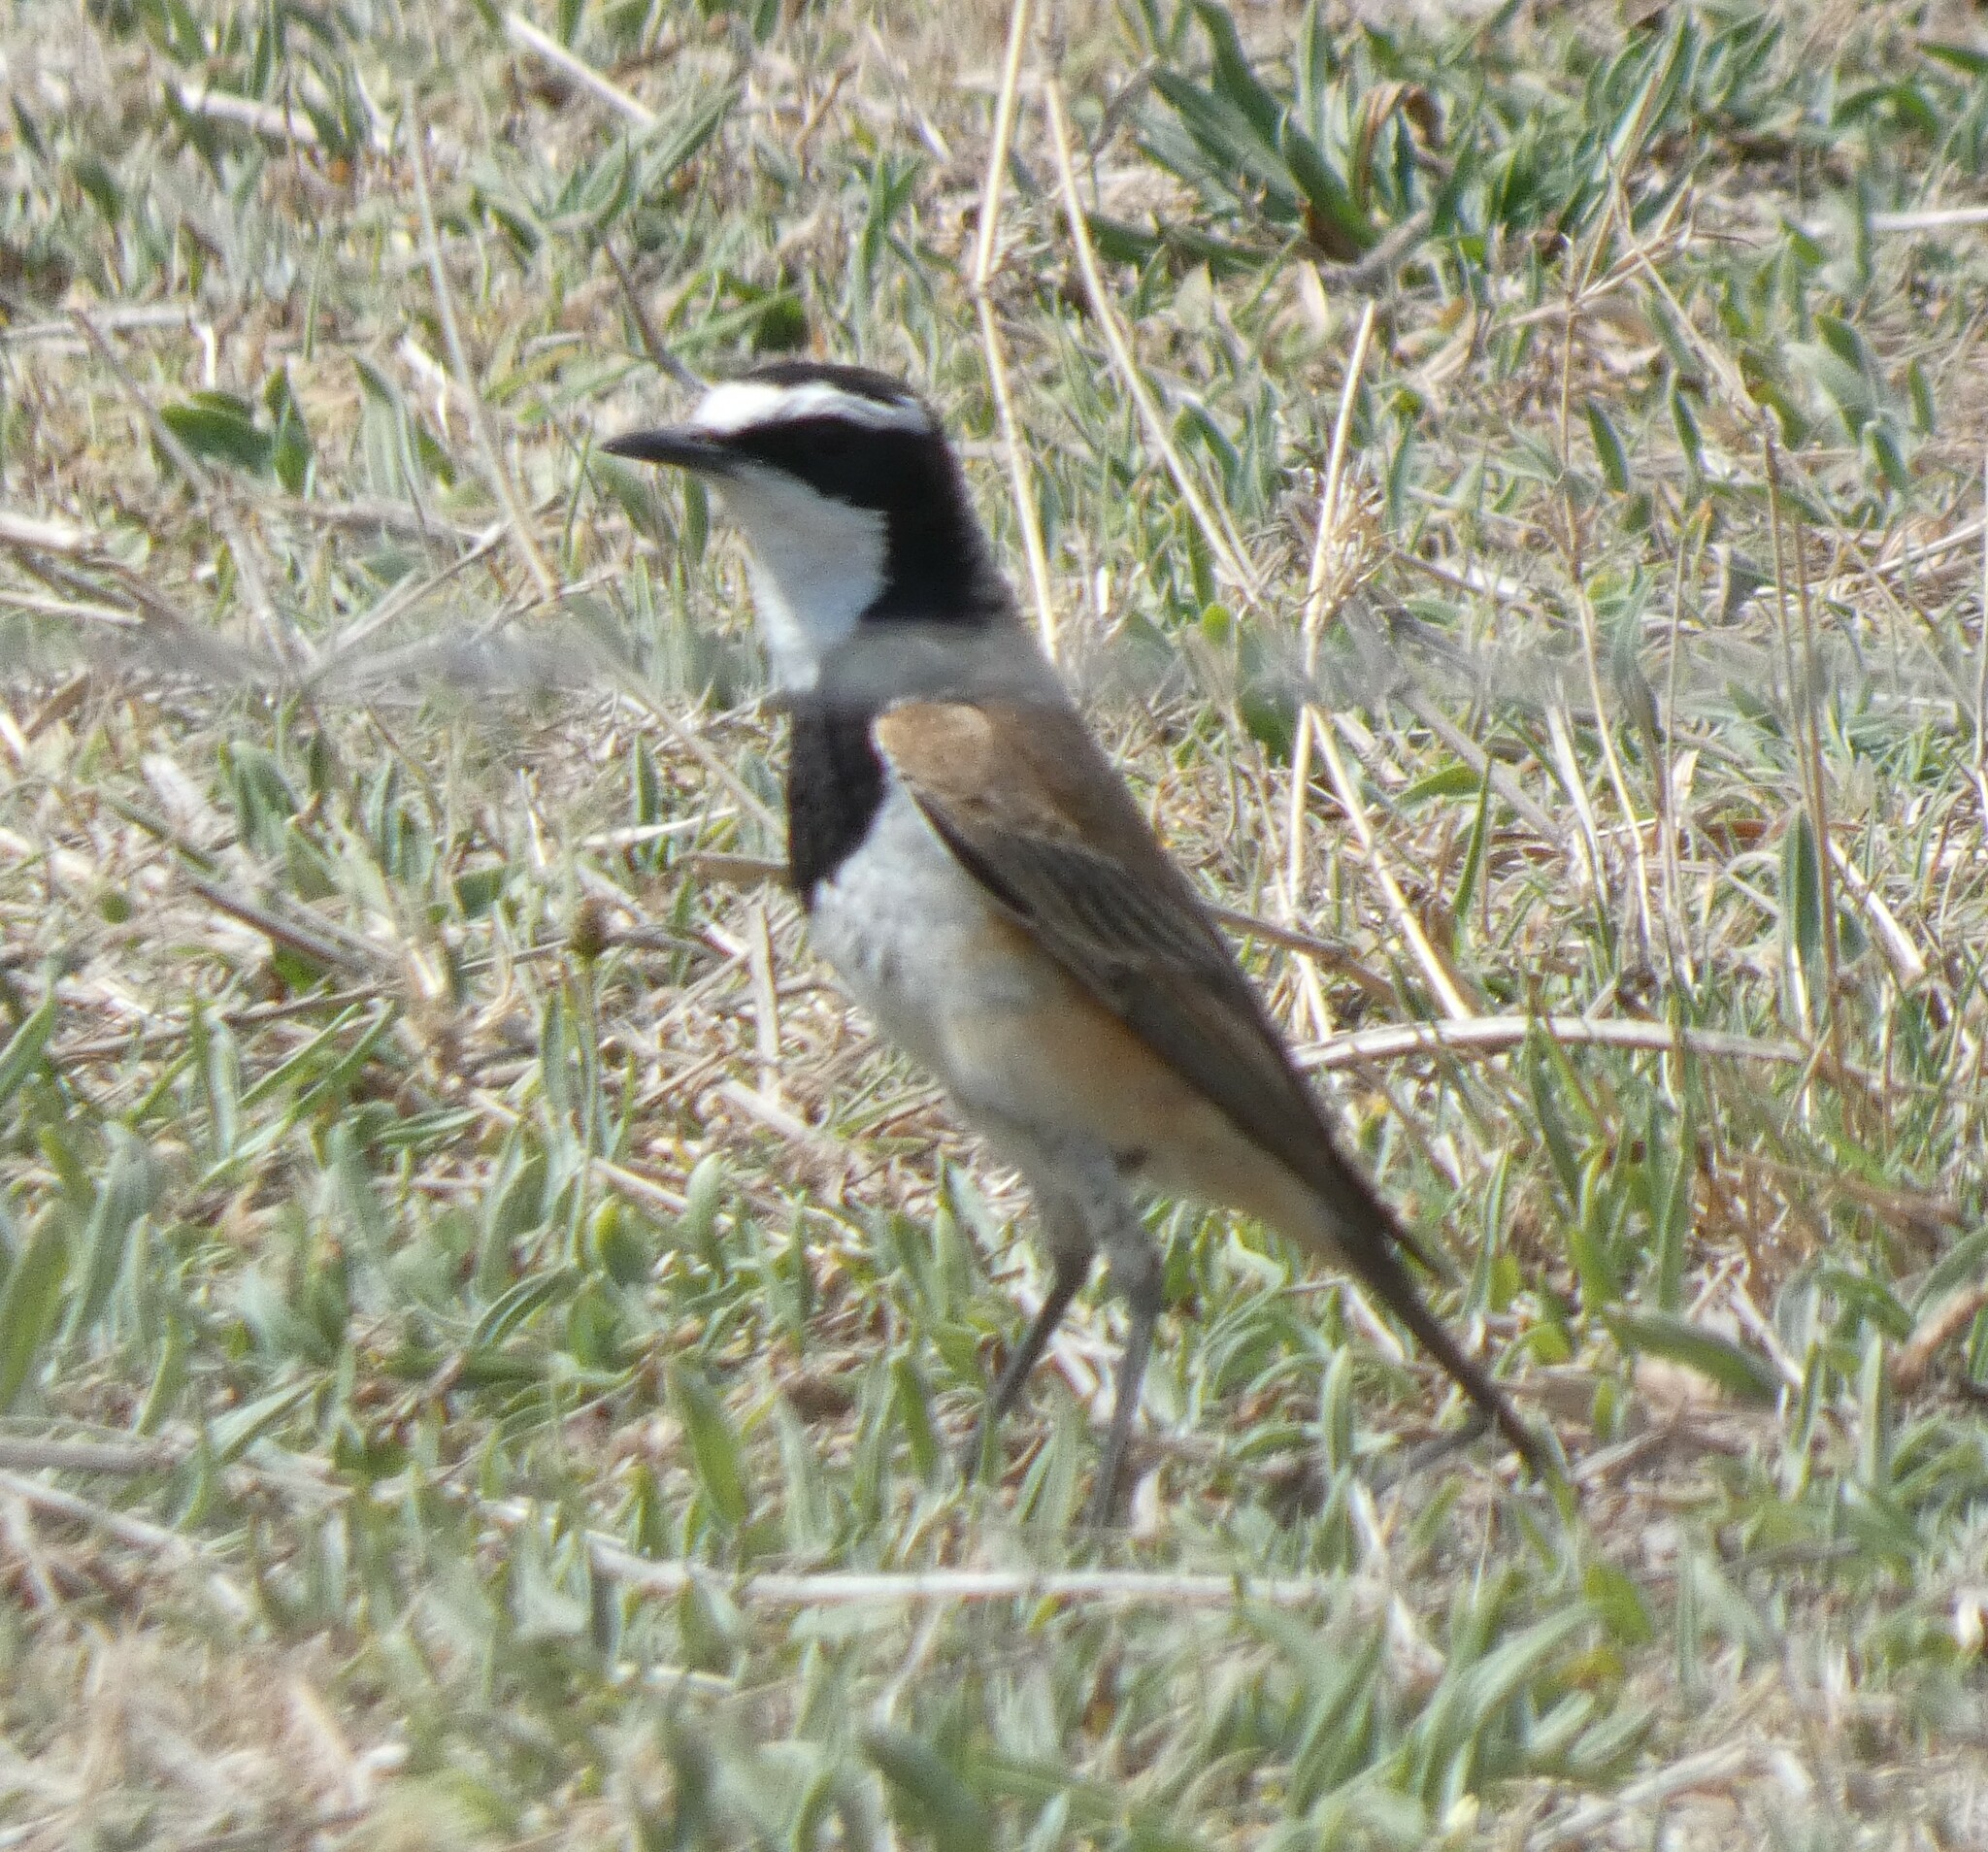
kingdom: Animalia
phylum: Chordata
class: Aves
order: Passeriformes
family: Muscicapidae
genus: Oenanthe
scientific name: Oenanthe pileata
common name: Capped wheatear
